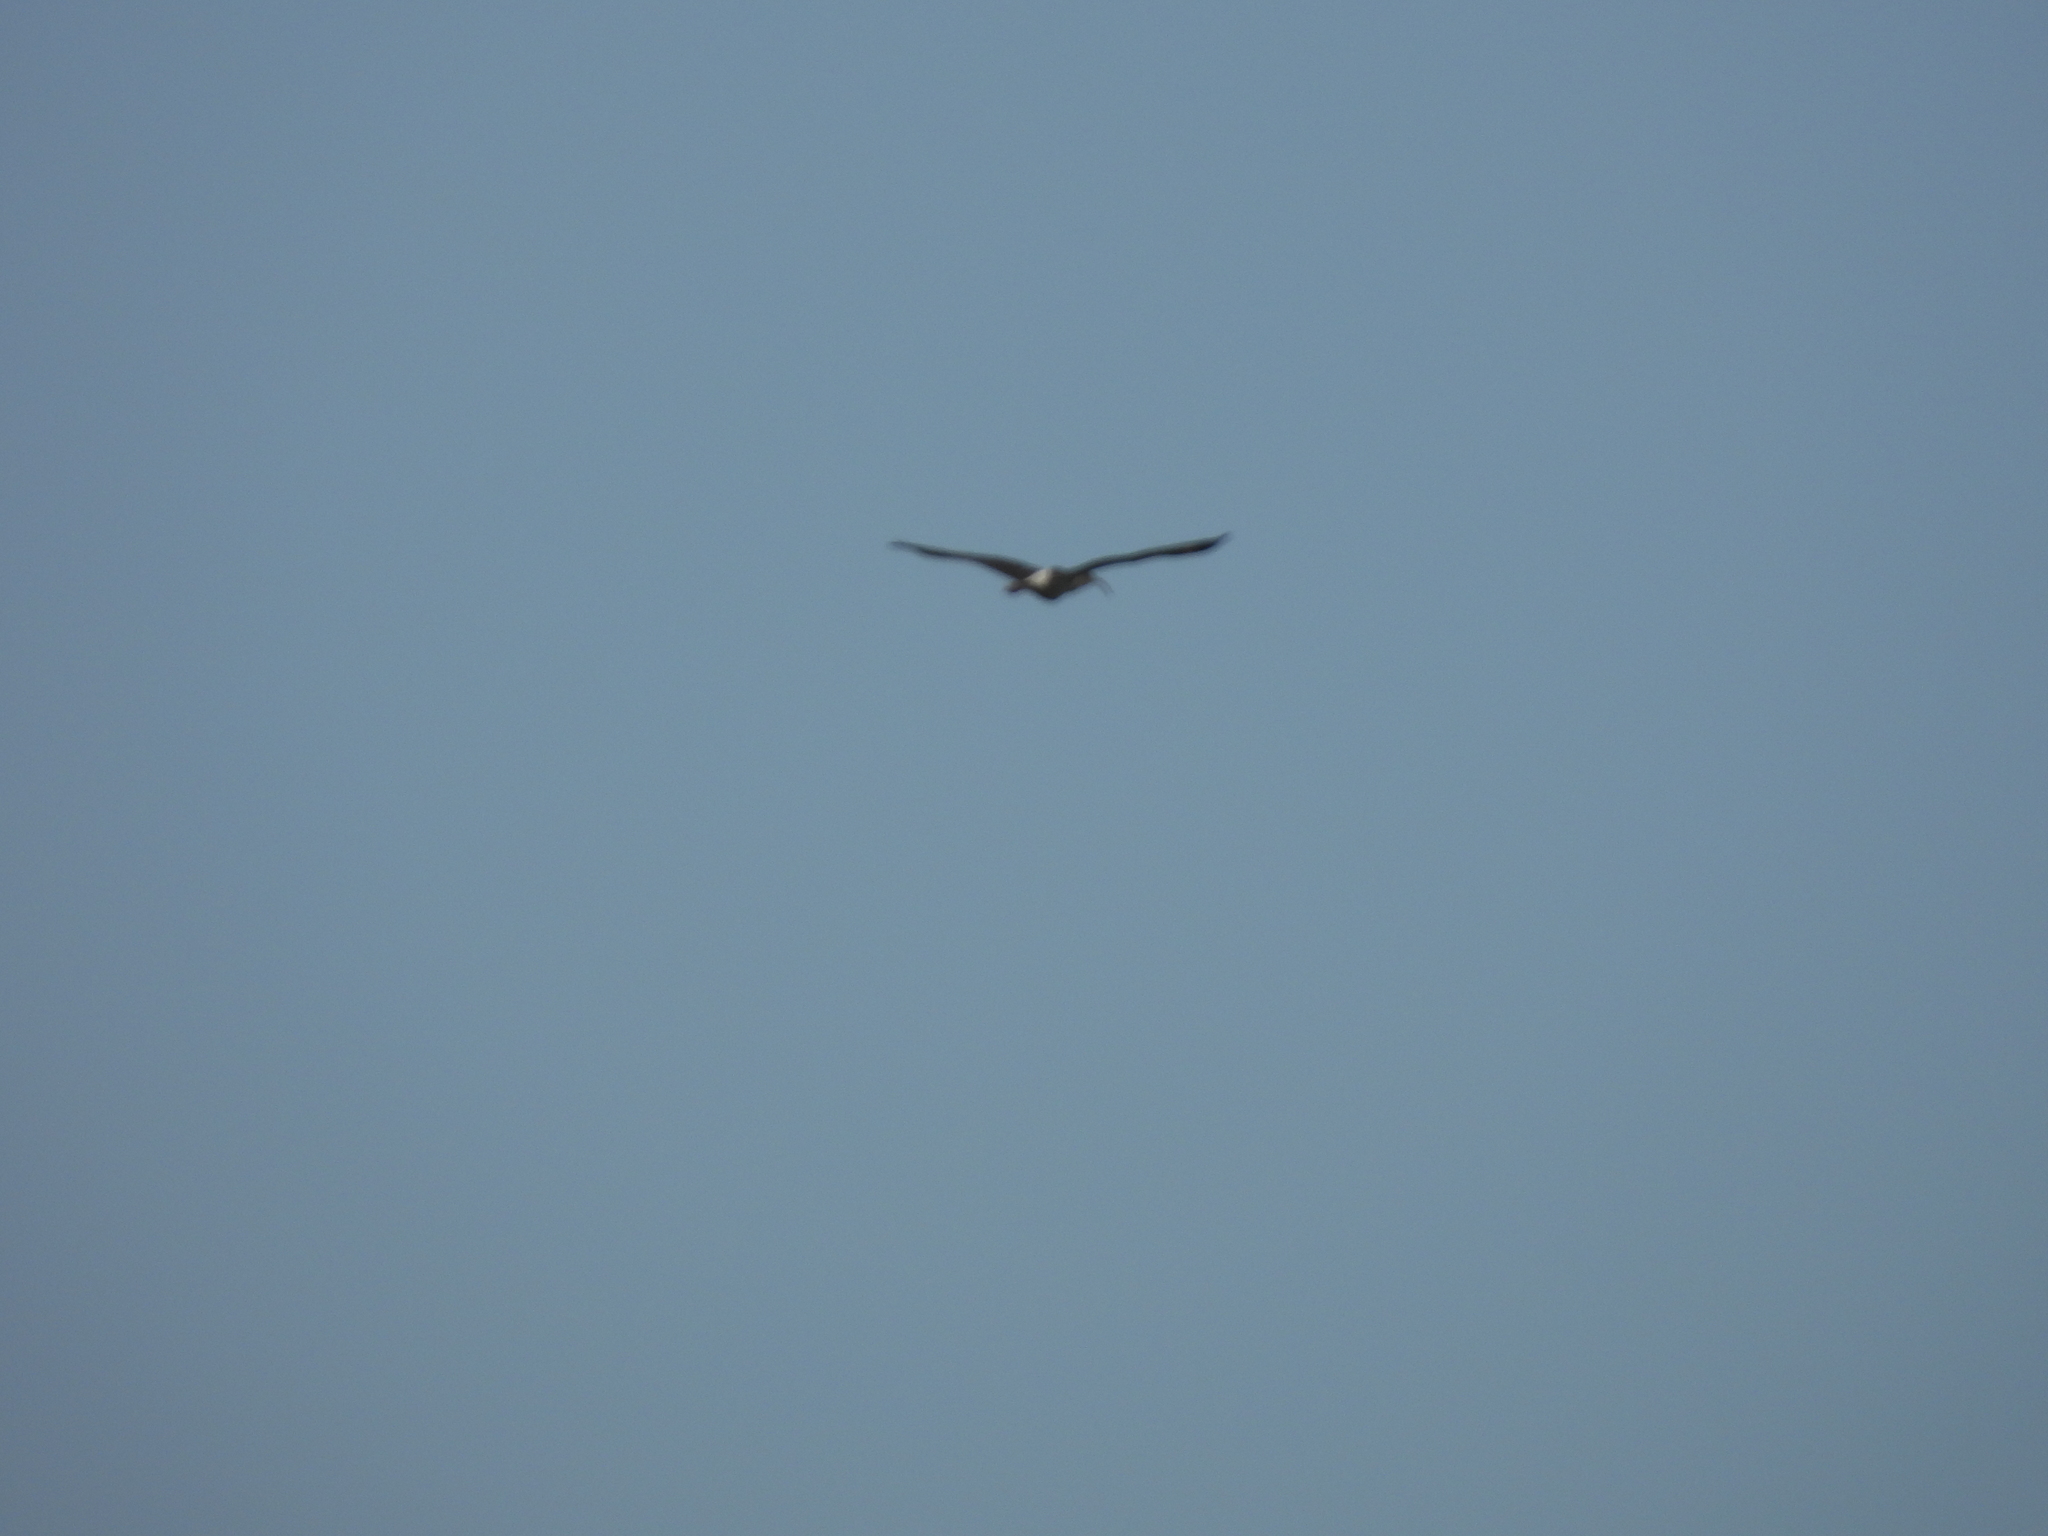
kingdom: Animalia
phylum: Chordata
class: Aves
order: Pelecaniformes
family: Threskiornithidae
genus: Eudocimus
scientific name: Eudocimus albus
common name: White ibis
